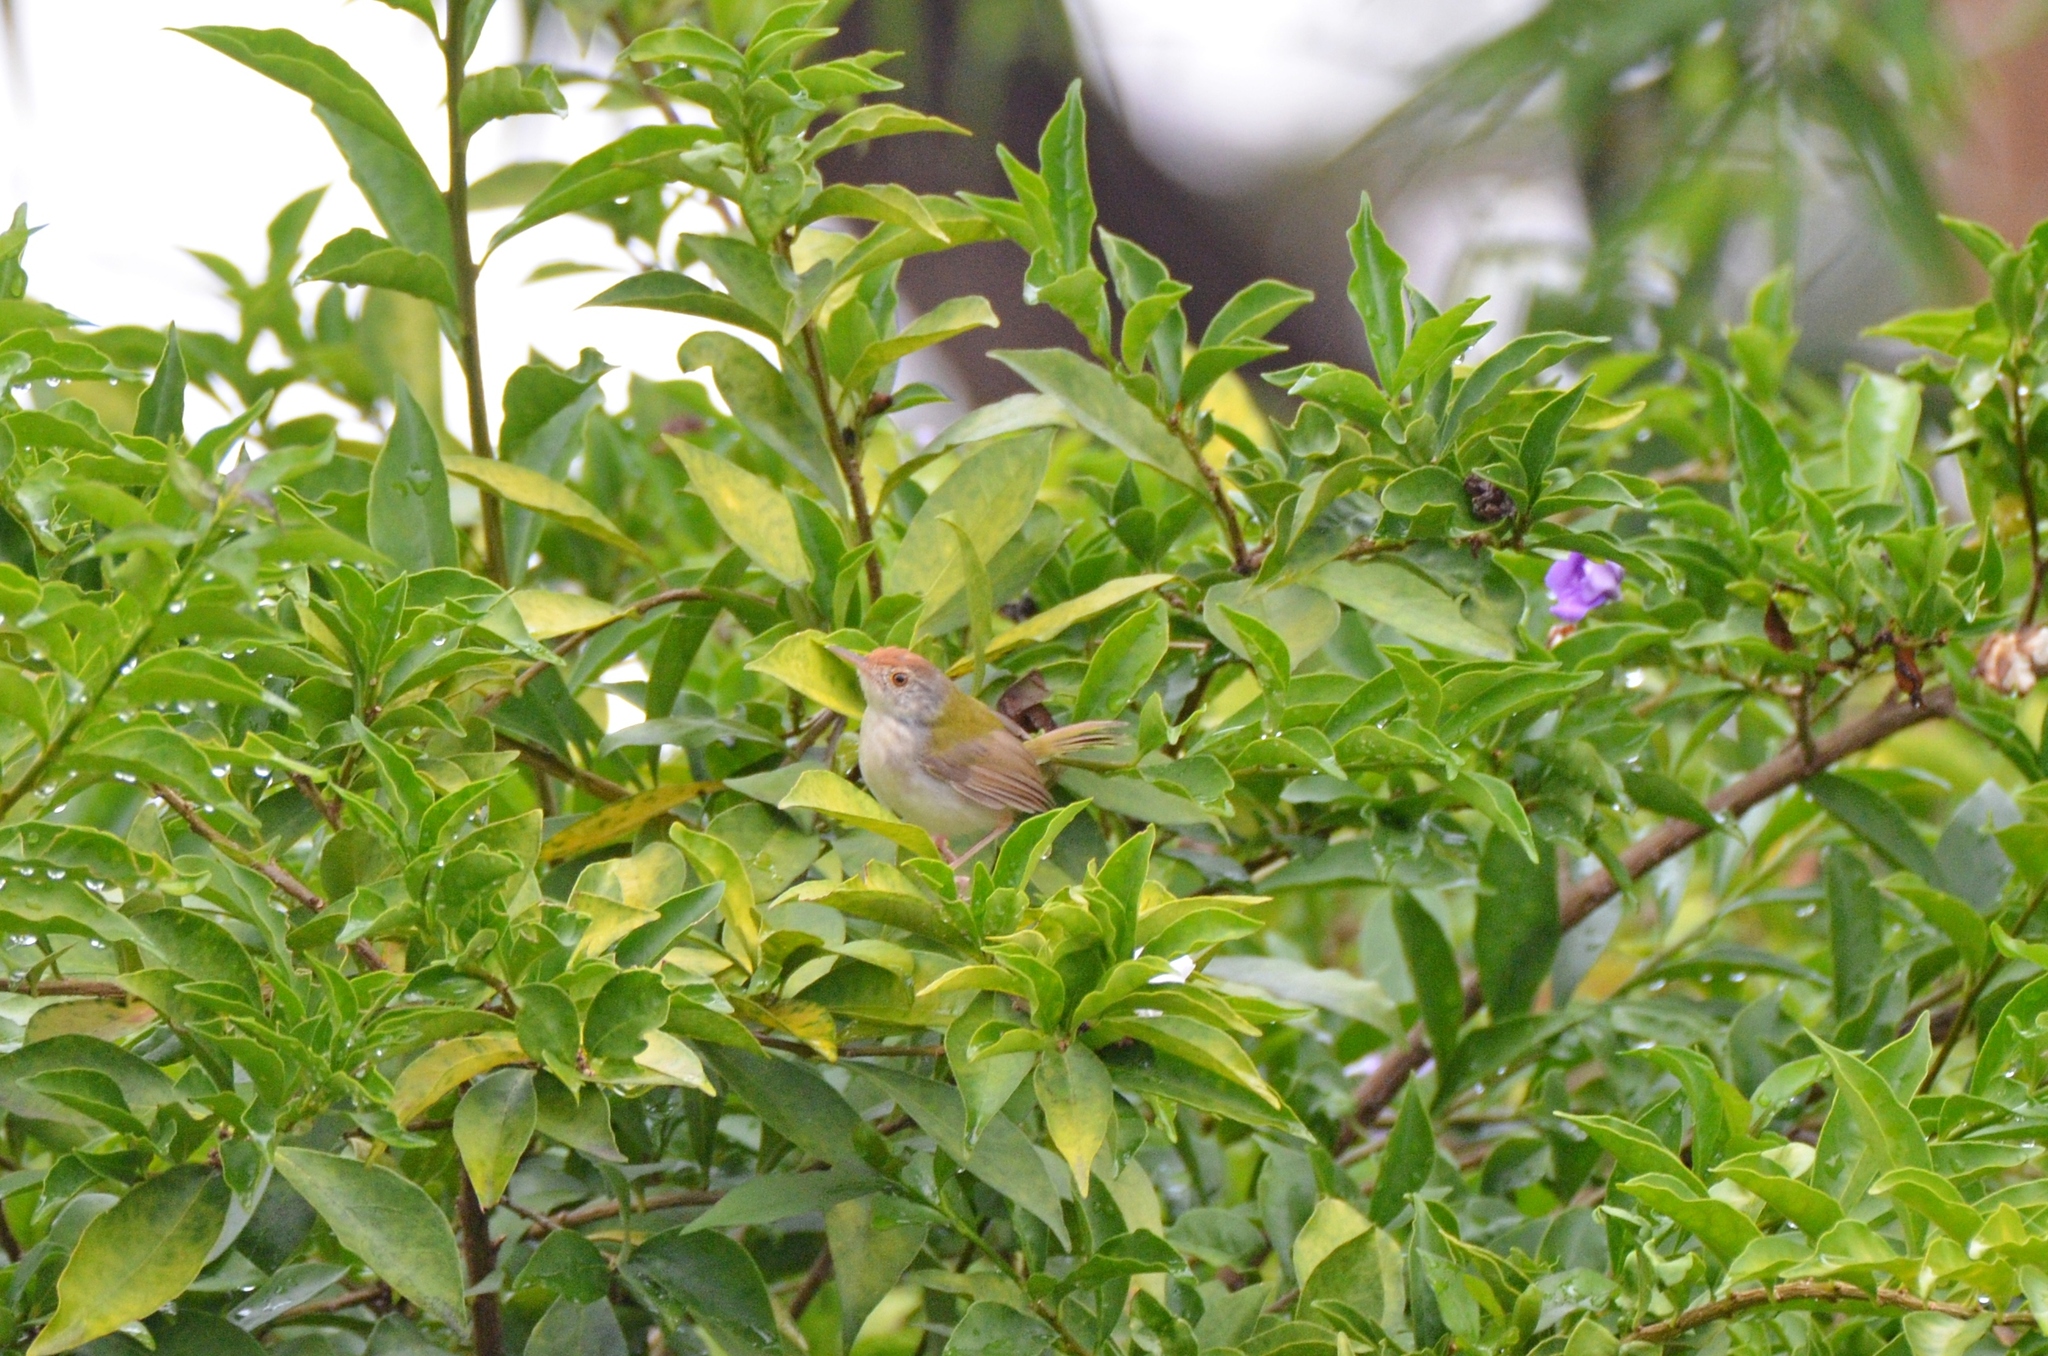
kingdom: Animalia
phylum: Chordata
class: Aves
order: Passeriformes
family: Cisticolidae
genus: Orthotomus
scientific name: Orthotomus sutorius
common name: Common tailorbird
